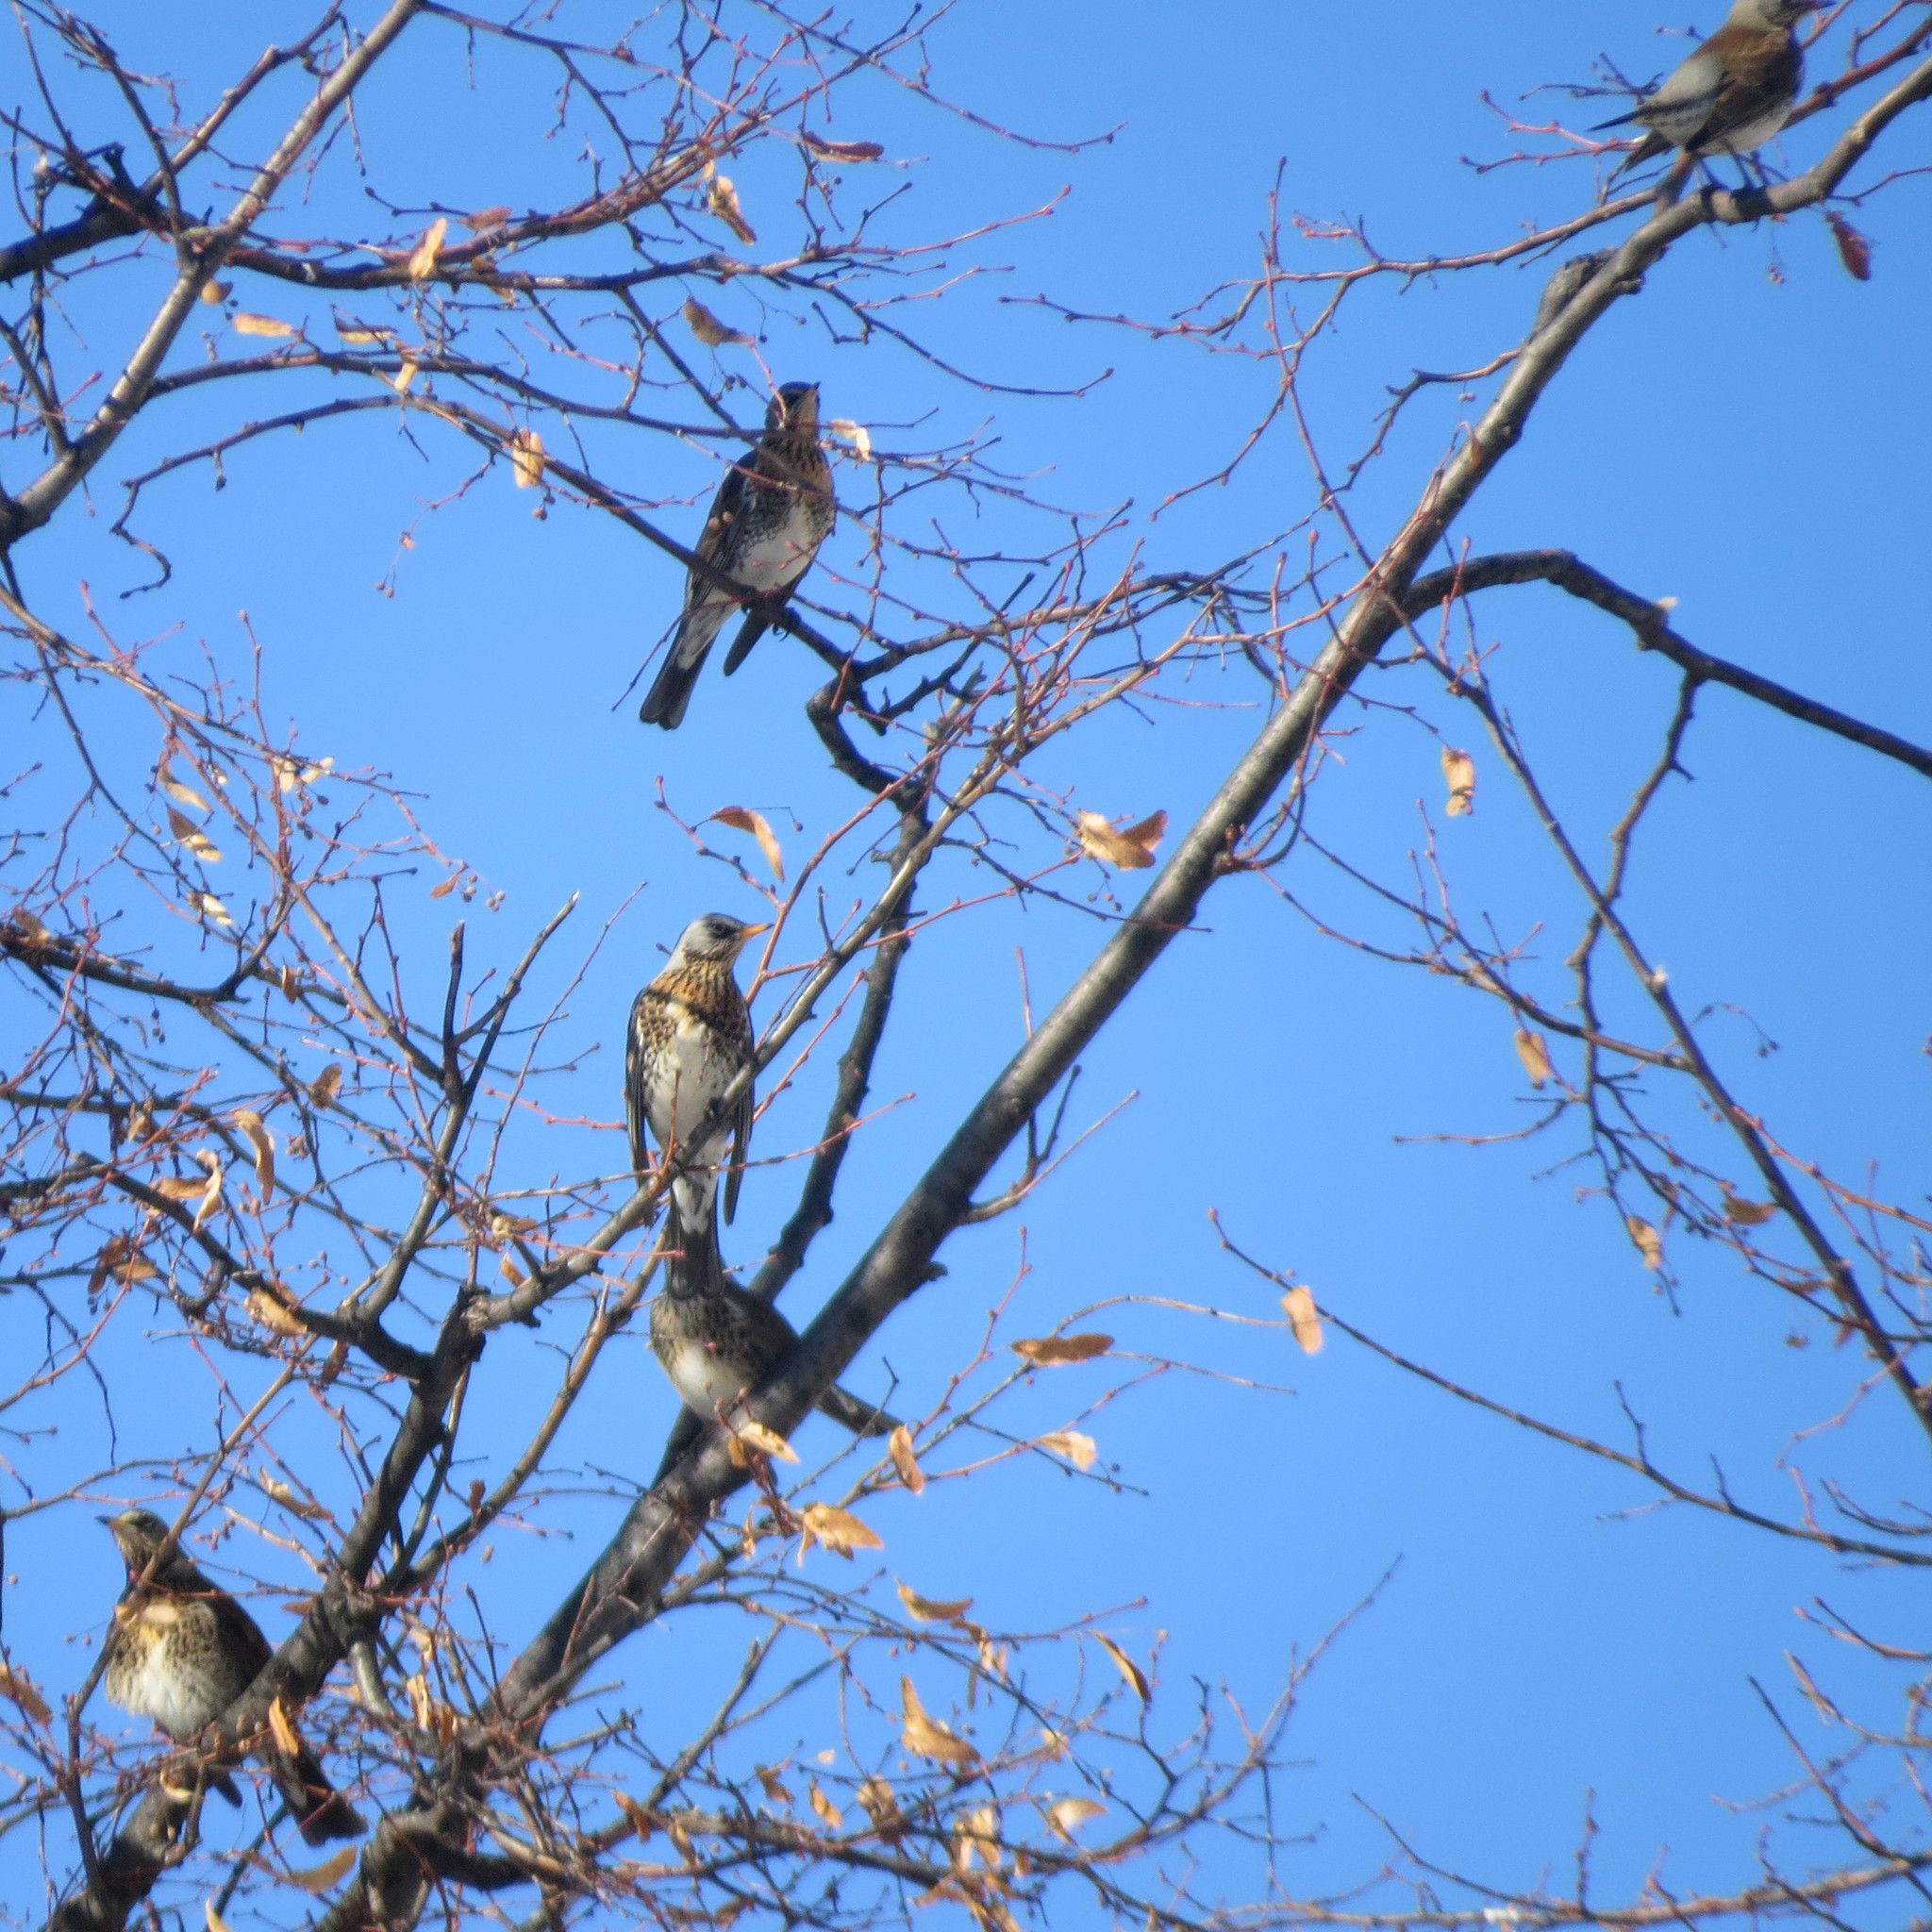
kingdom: Animalia
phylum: Chordata
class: Aves
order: Passeriformes
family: Turdidae
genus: Turdus
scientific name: Turdus pilaris
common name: Fieldfare
